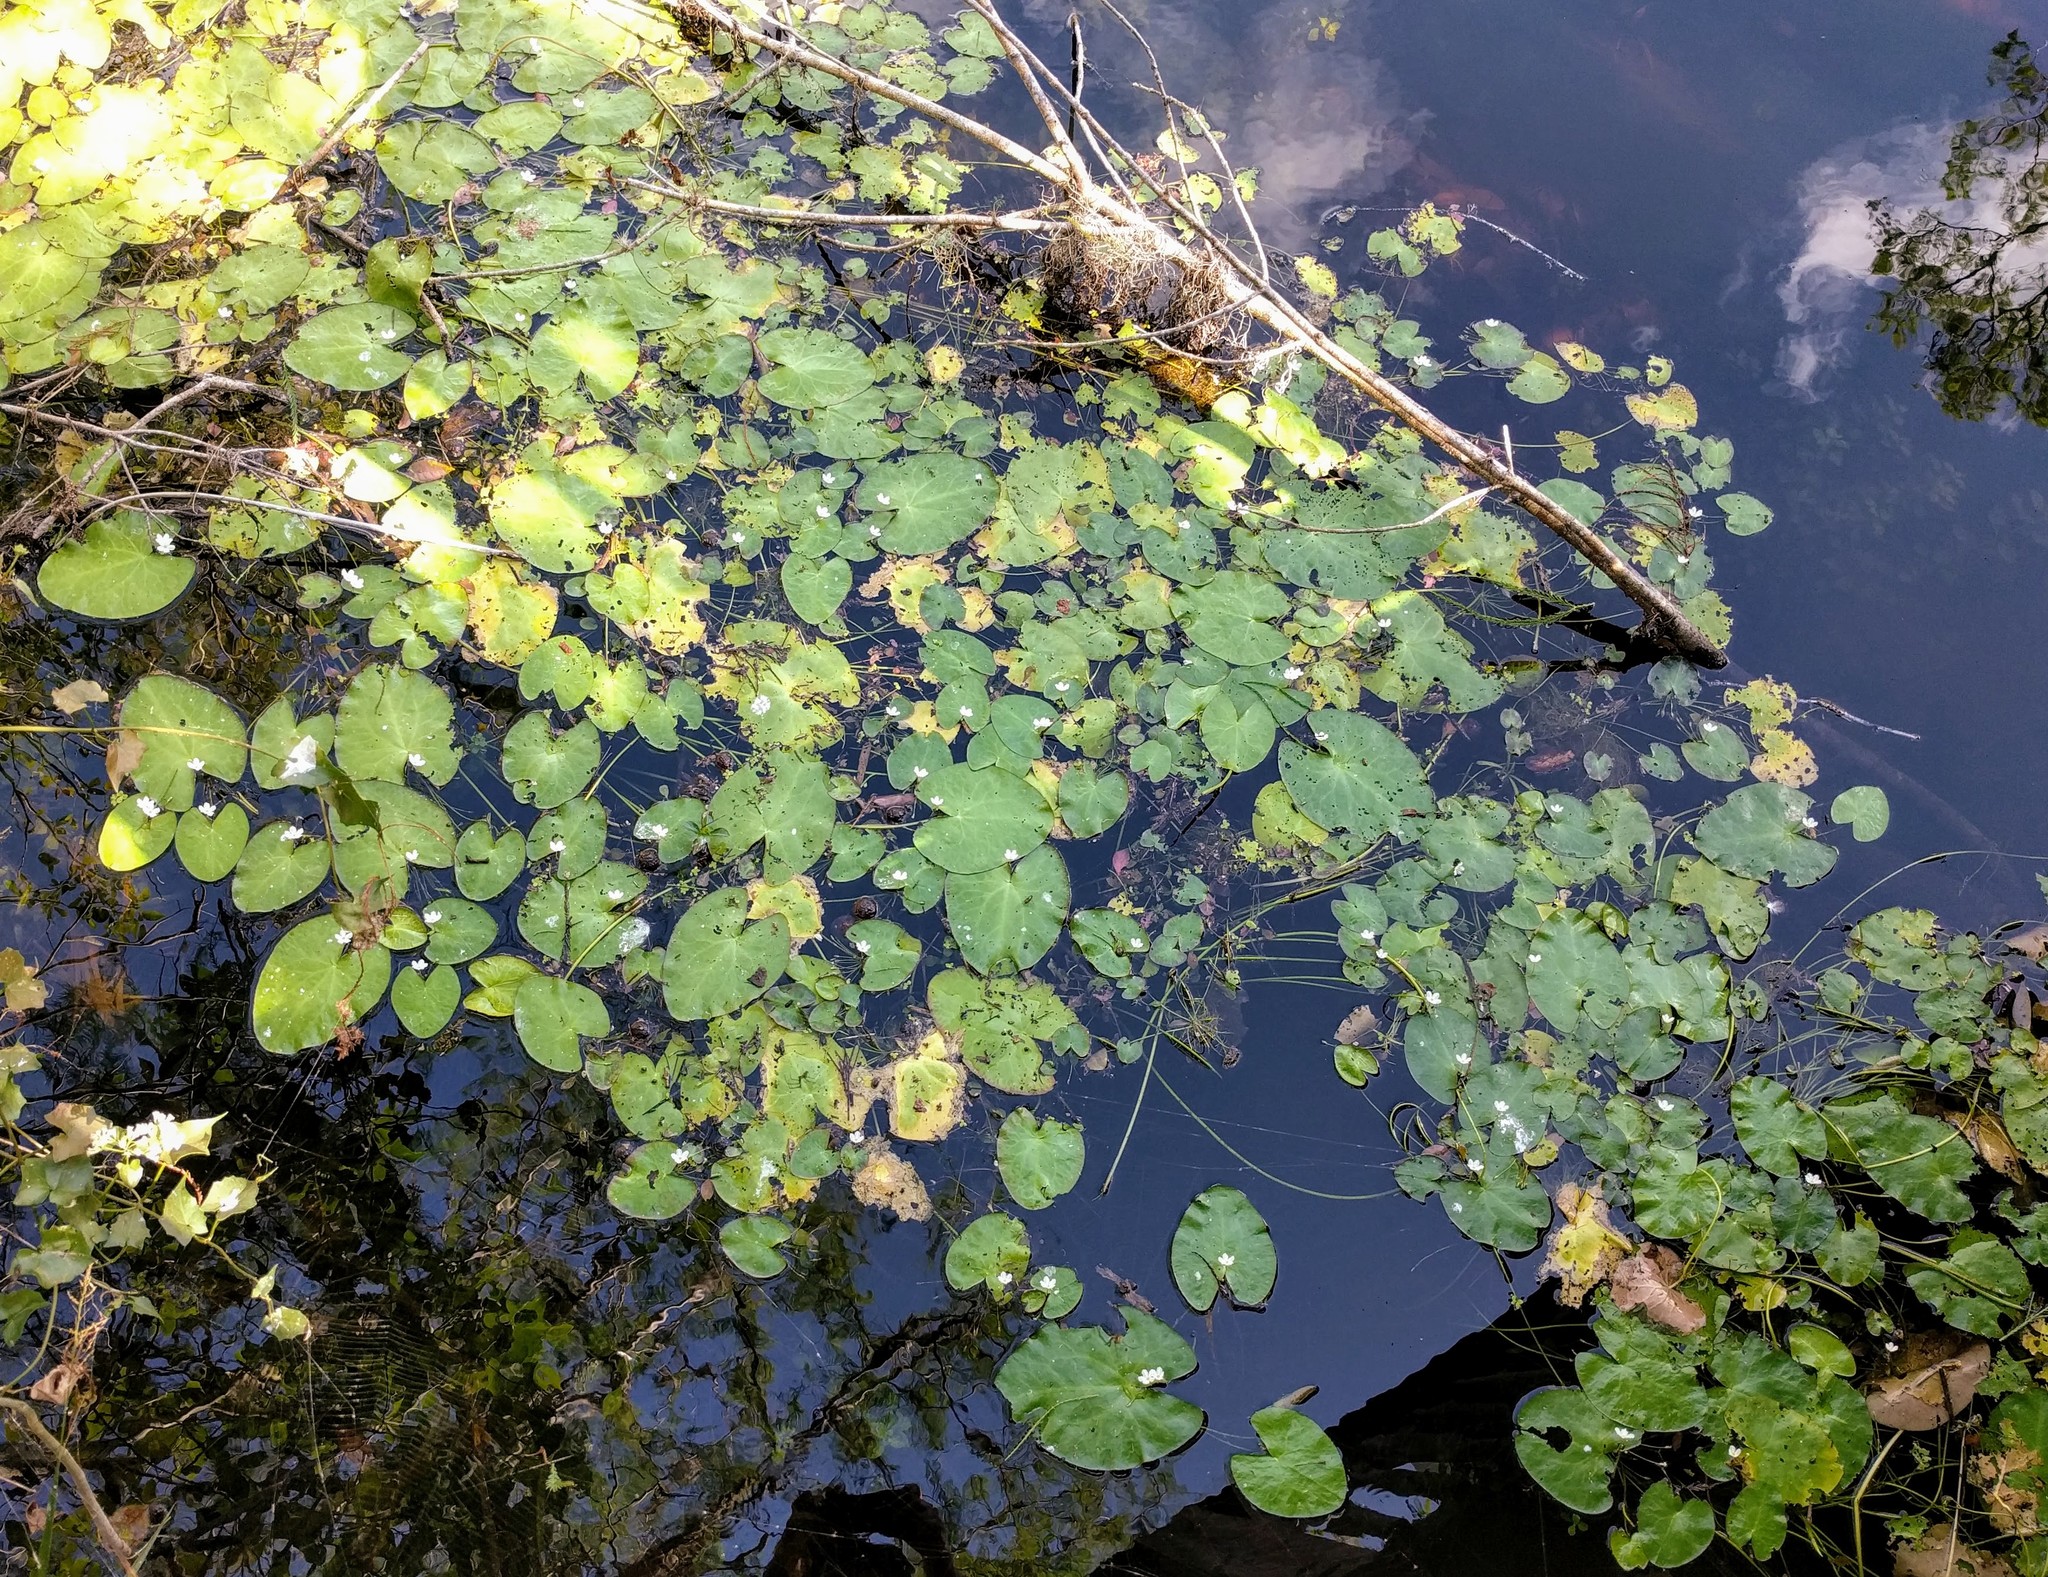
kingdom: Plantae
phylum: Tracheophyta
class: Magnoliopsida
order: Asterales
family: Menyanthaceae
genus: Nymphoides
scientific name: Nymphoides hydrophylla
